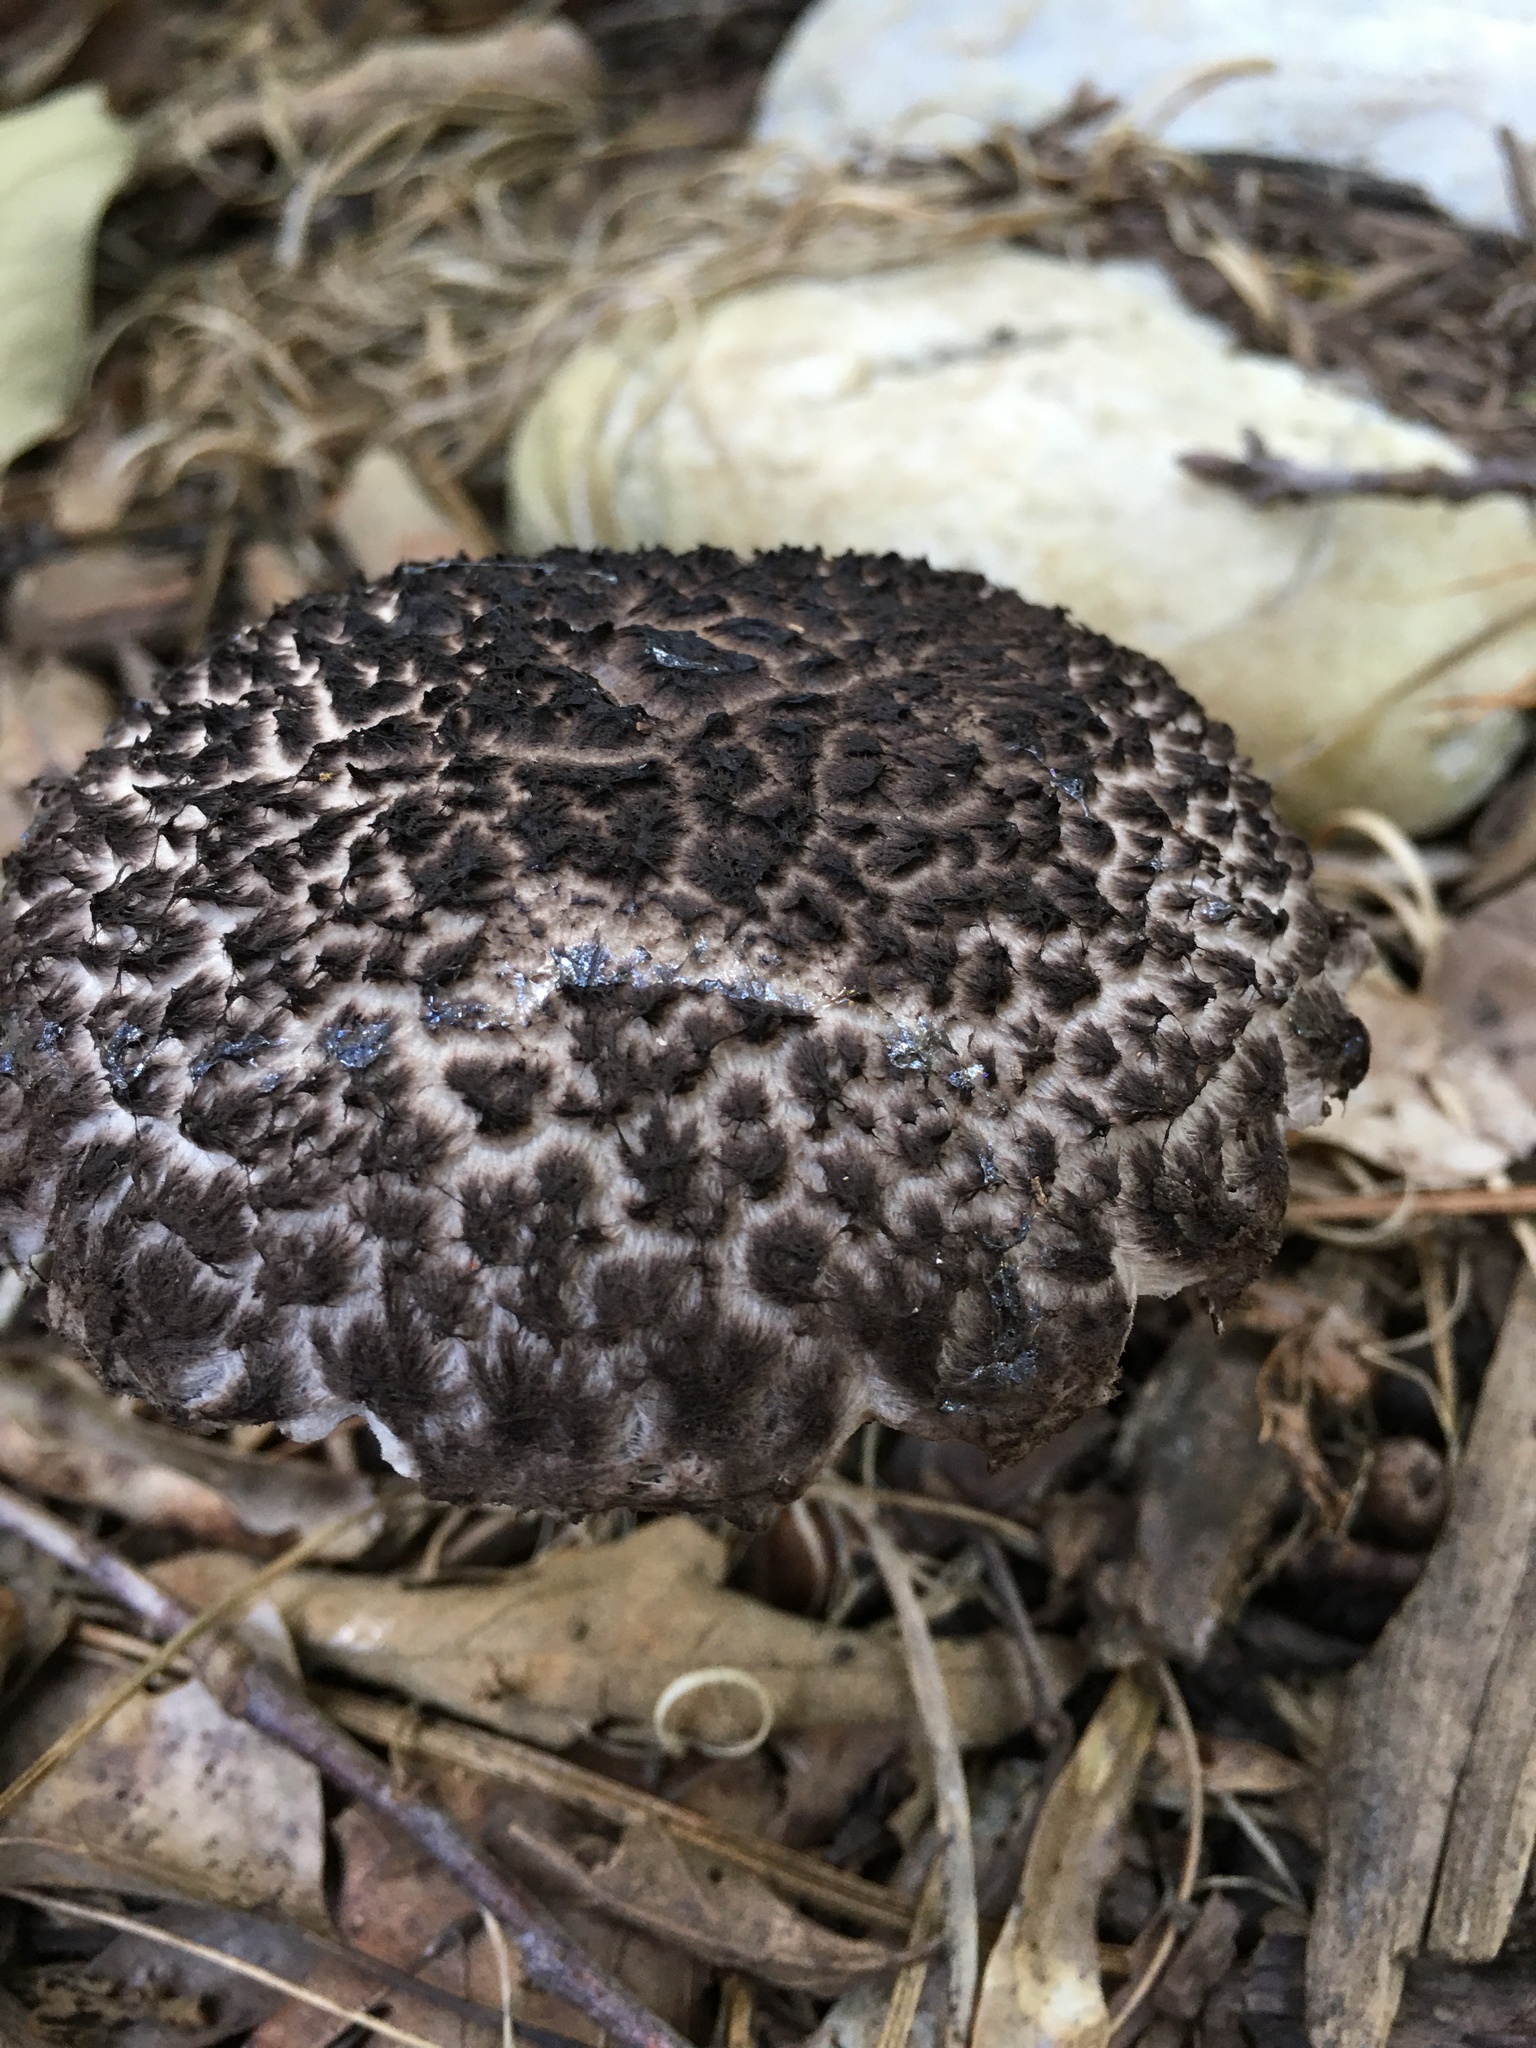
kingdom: Fungi
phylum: Basidiomycota
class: Agaricomycetes
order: Boletales
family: Boletaceae
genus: Strobilomyces
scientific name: Strobilomyces strobilaceus
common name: Old man of the woods
